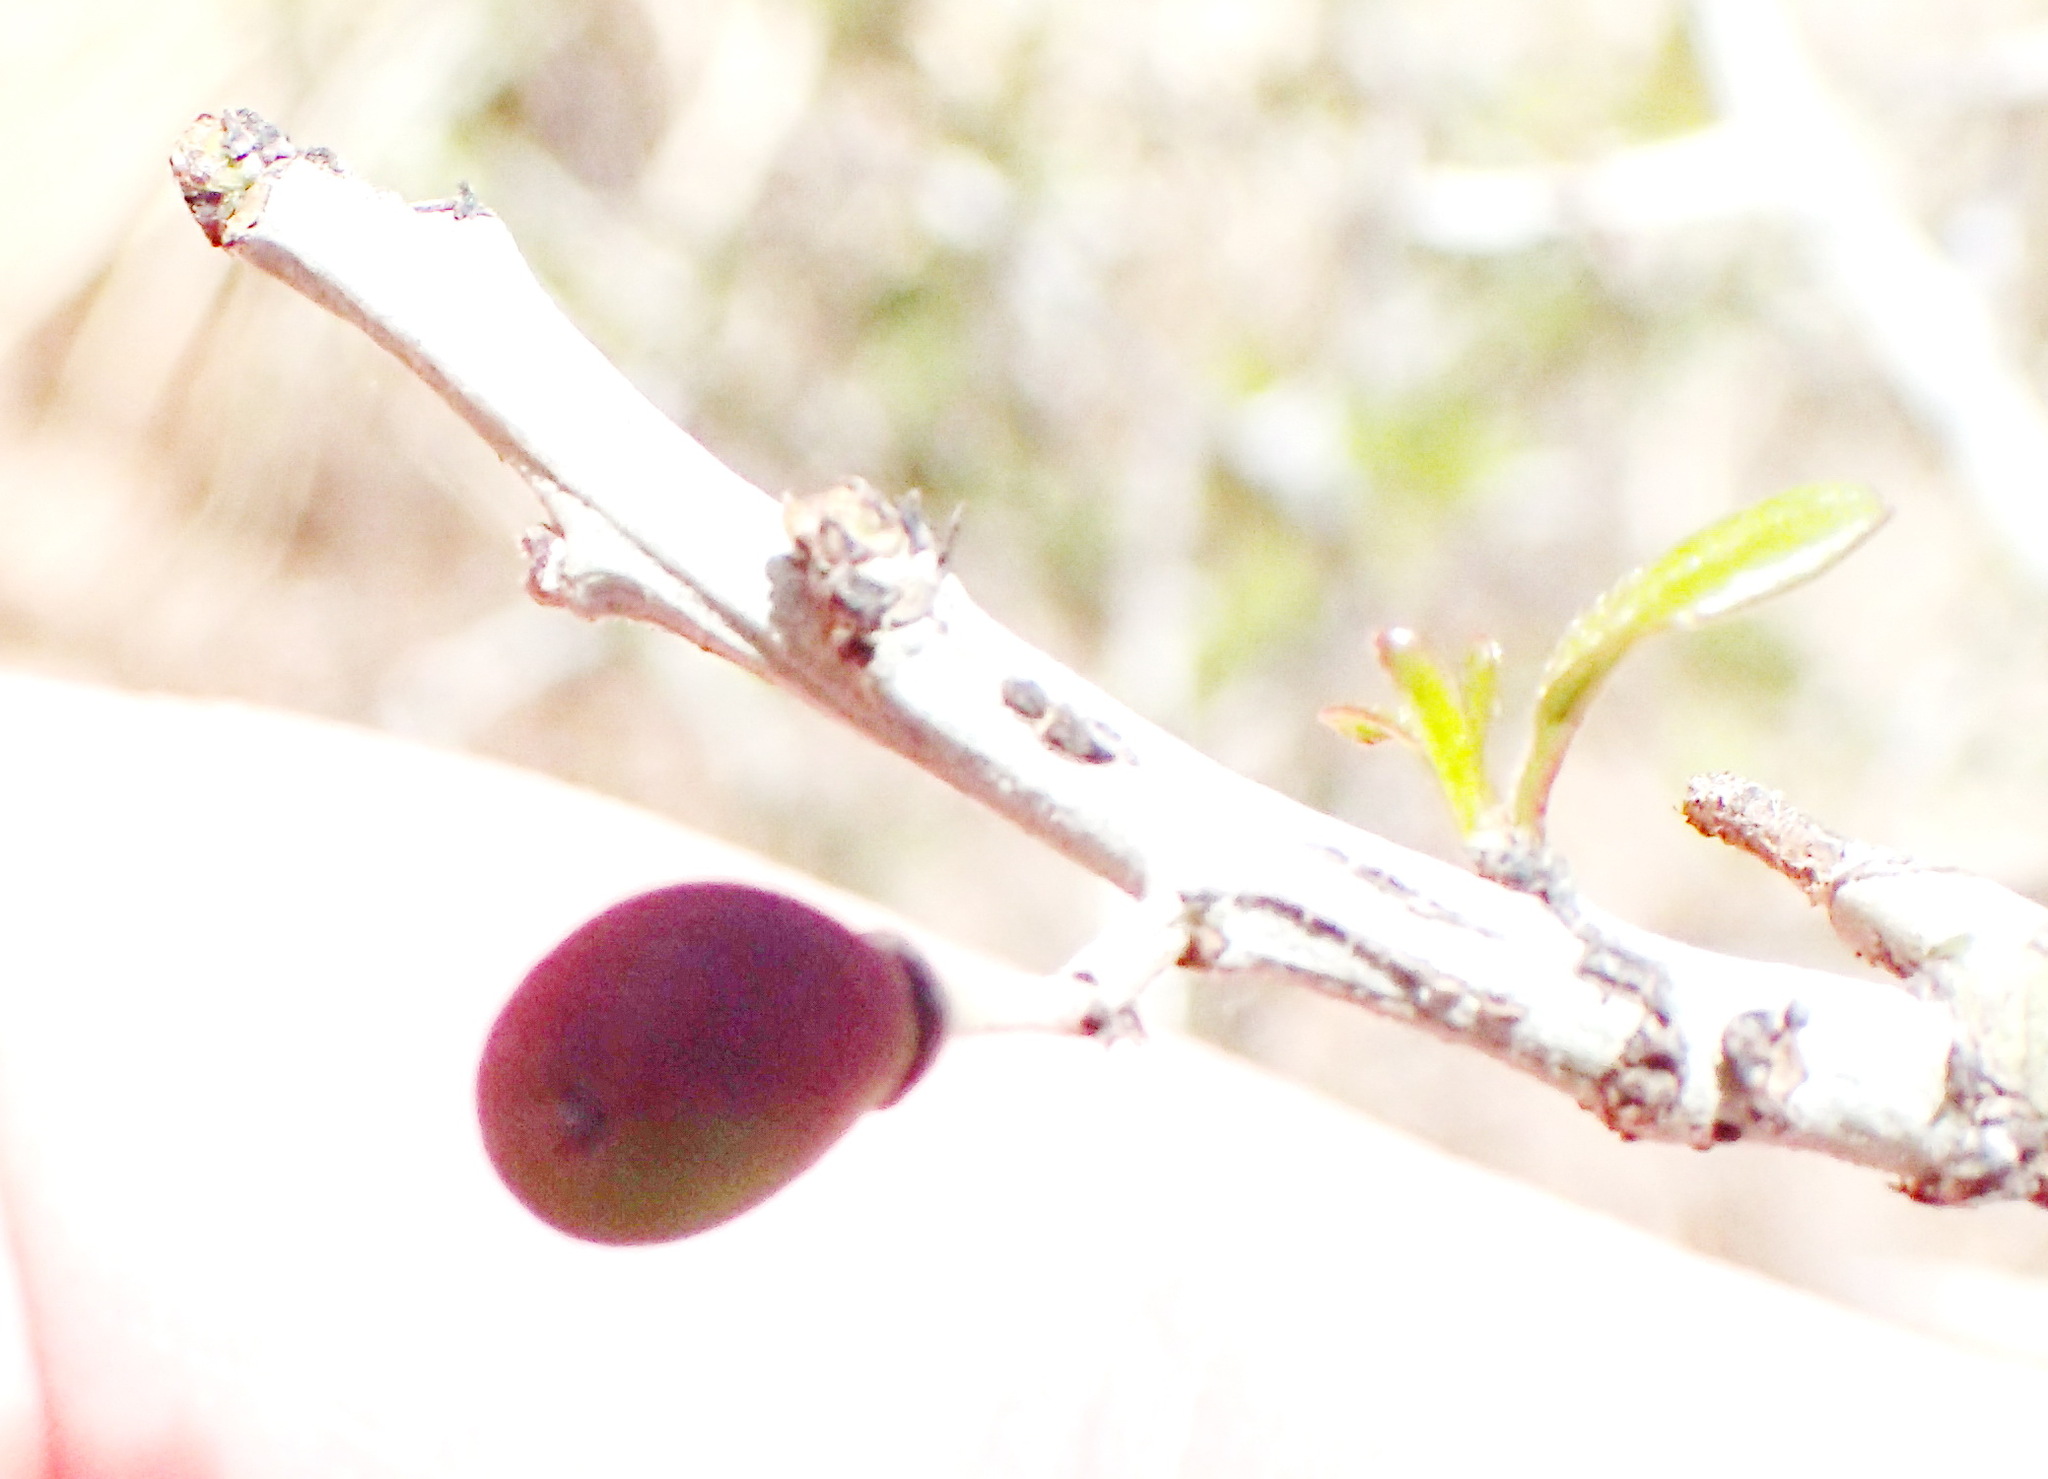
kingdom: Plantae
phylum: Tracheophyta
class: Magnoliopsida
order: Rosales
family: Rhamnaceae
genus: Sarcomphalus
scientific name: Sarcomphalus obtusifolius
